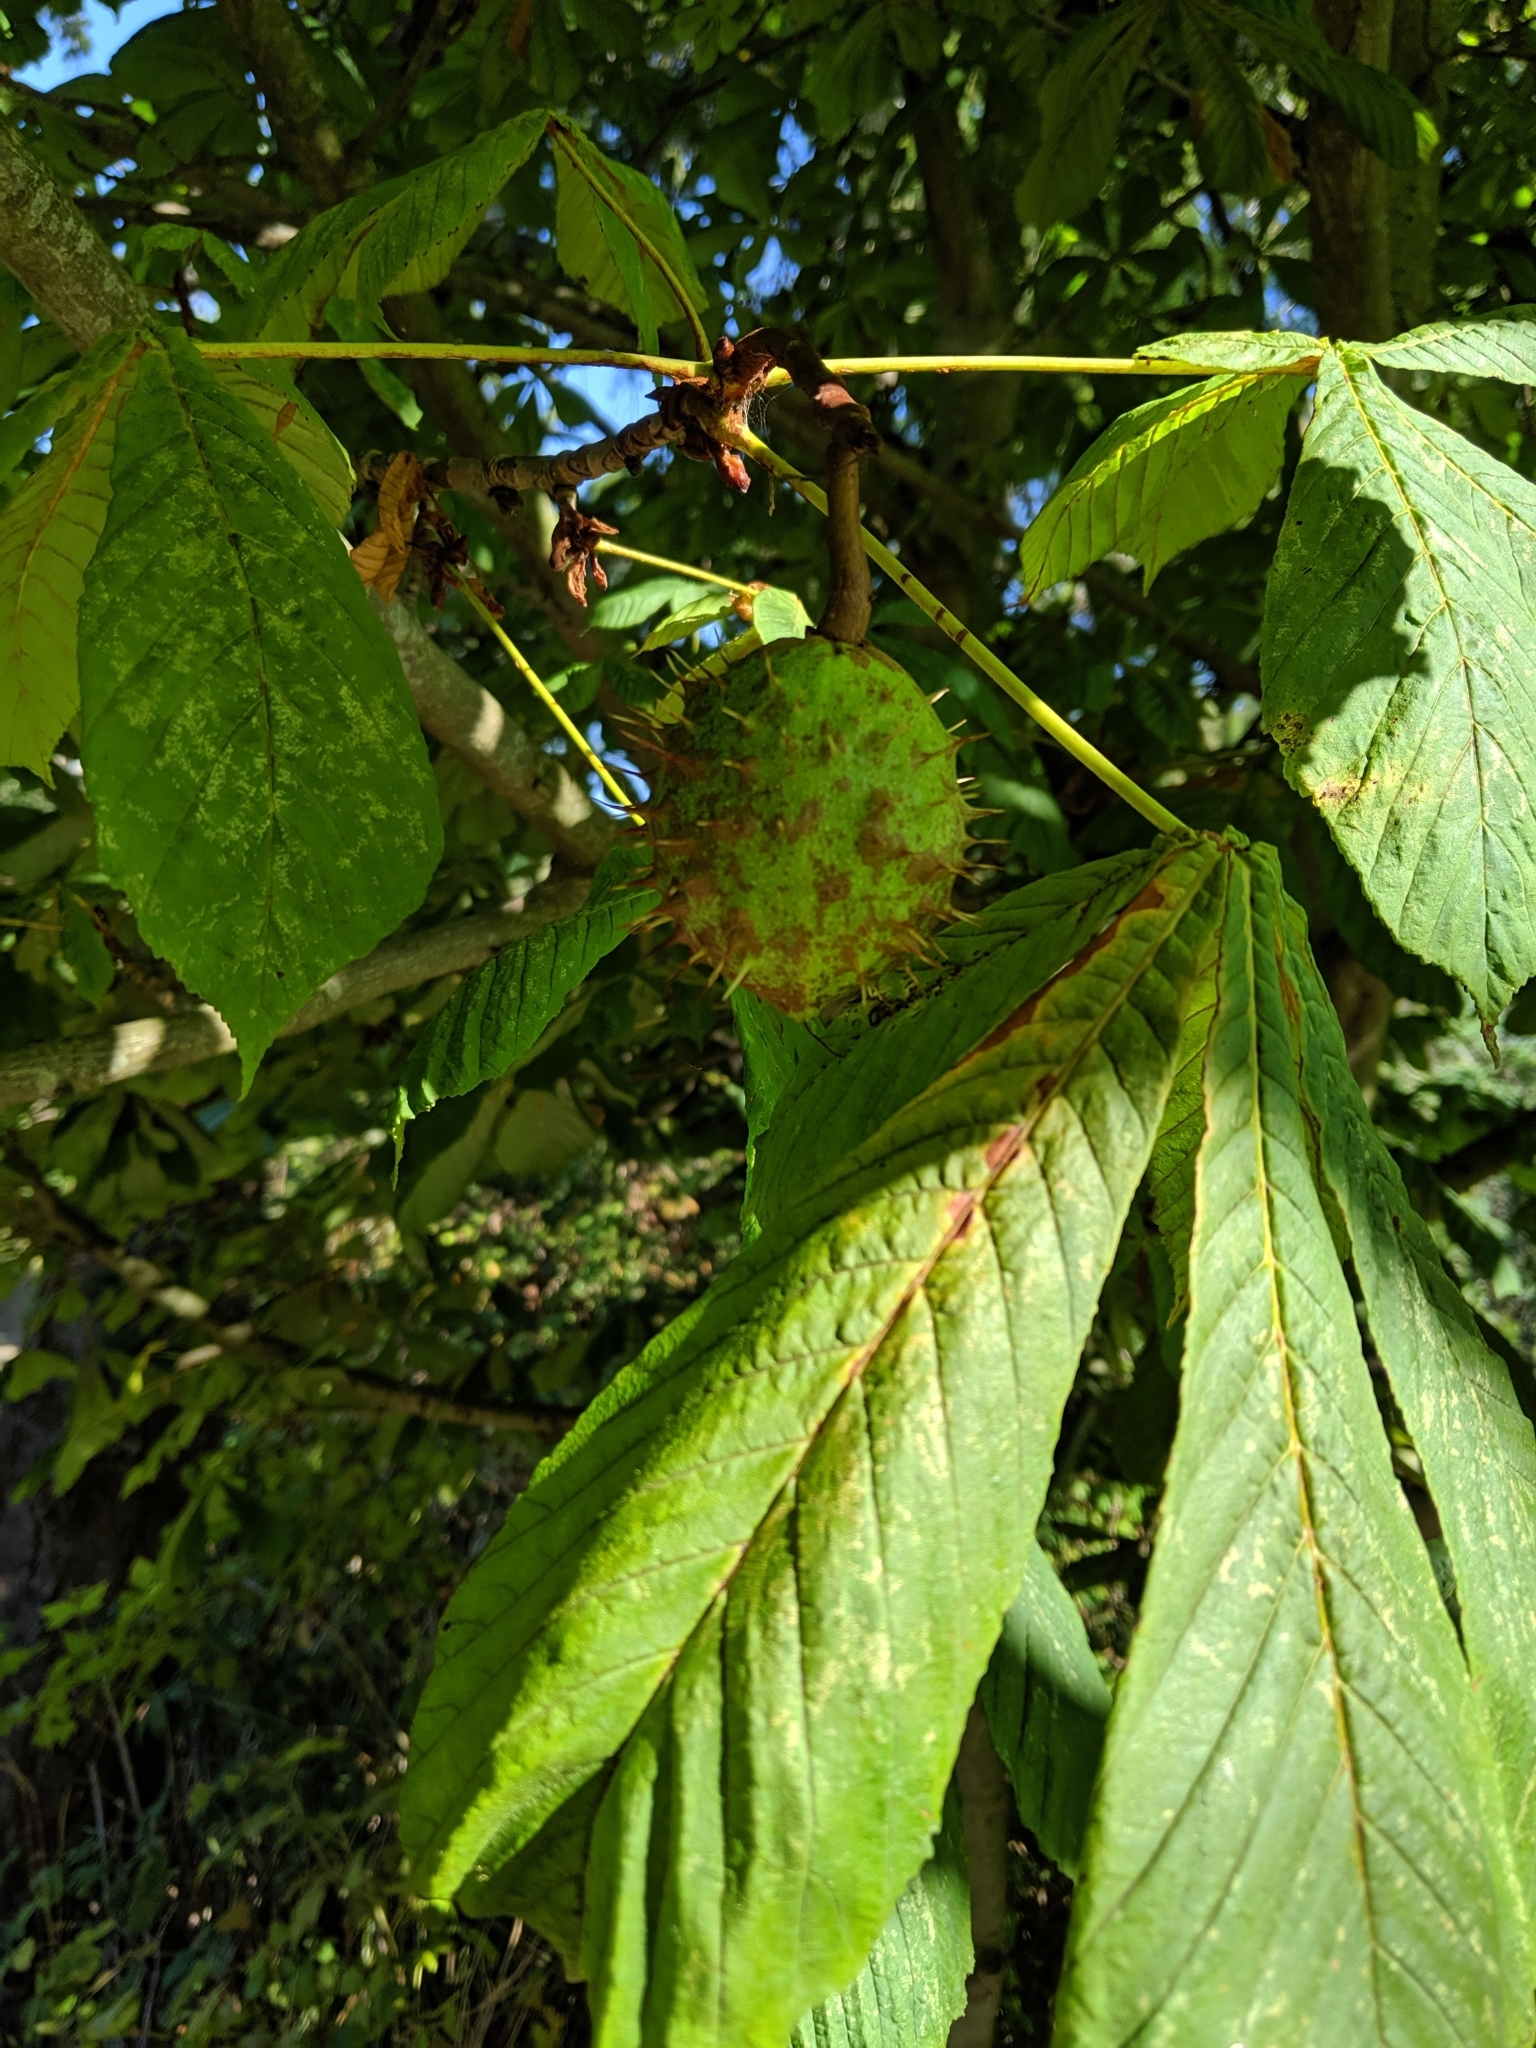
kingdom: Plantae
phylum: Tracheophyta
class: Magnoliopsida
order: Sapindales
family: Sapindaceae
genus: Aesculus
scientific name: Aesculus hippocastanum
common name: Horse-chestnut
